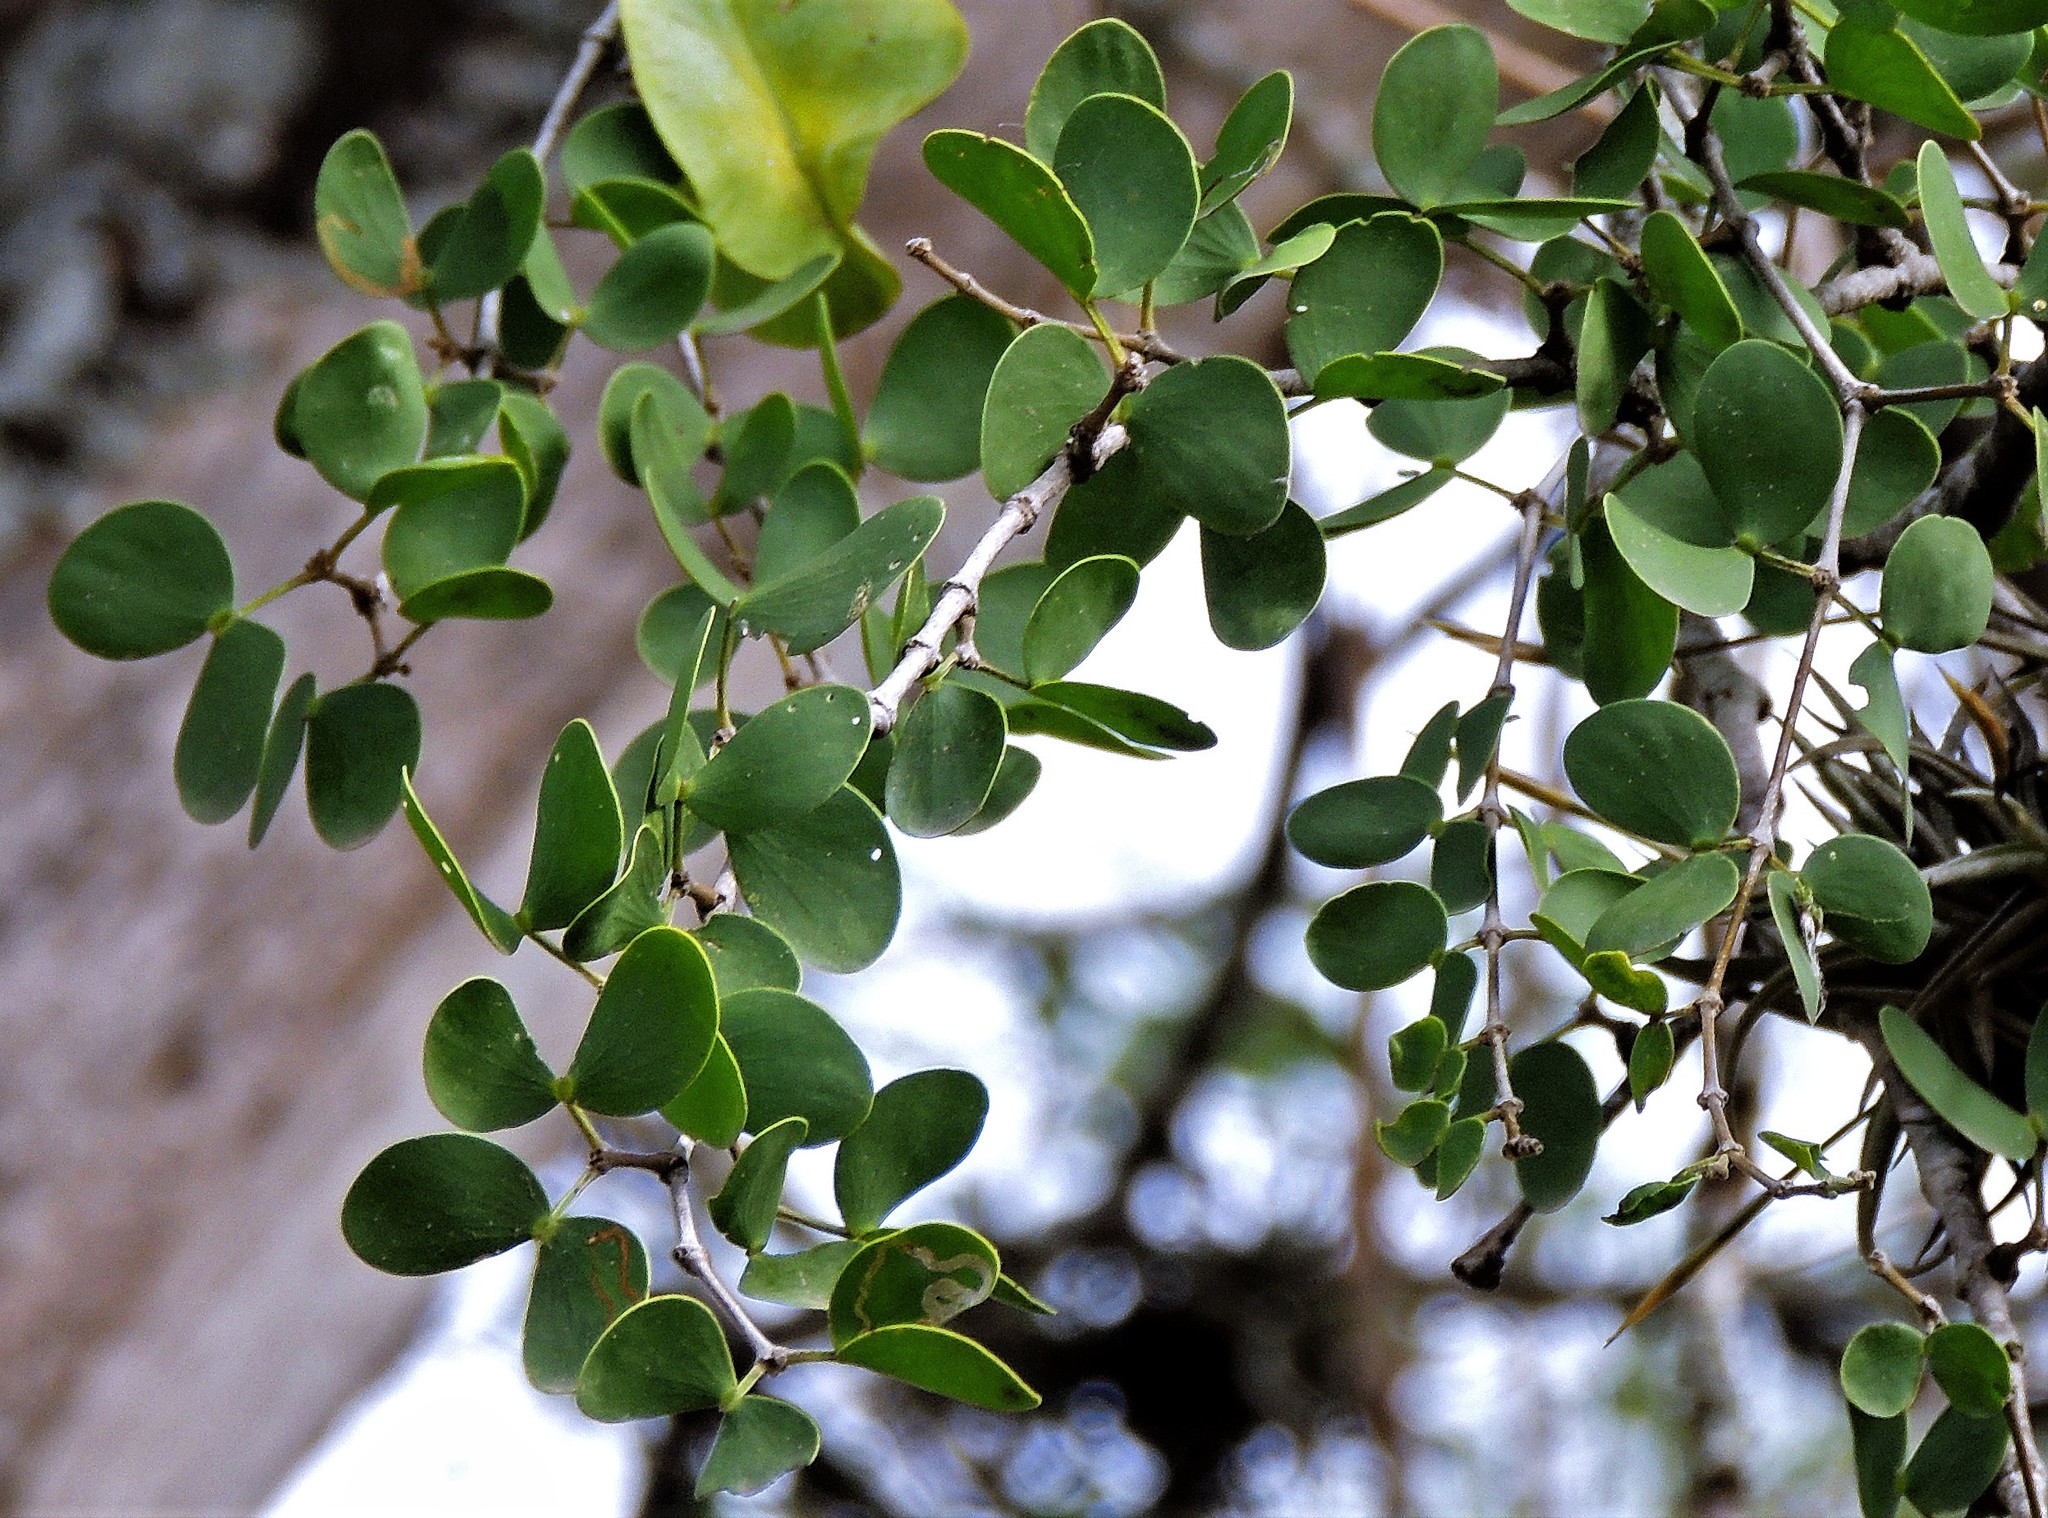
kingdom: Plantae
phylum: Tracheophyta
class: Magnoliopsida
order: Zygophyllales
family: Zygophyllaceae
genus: Gonopterodendron
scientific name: Gonopterodendron sarmientoi
